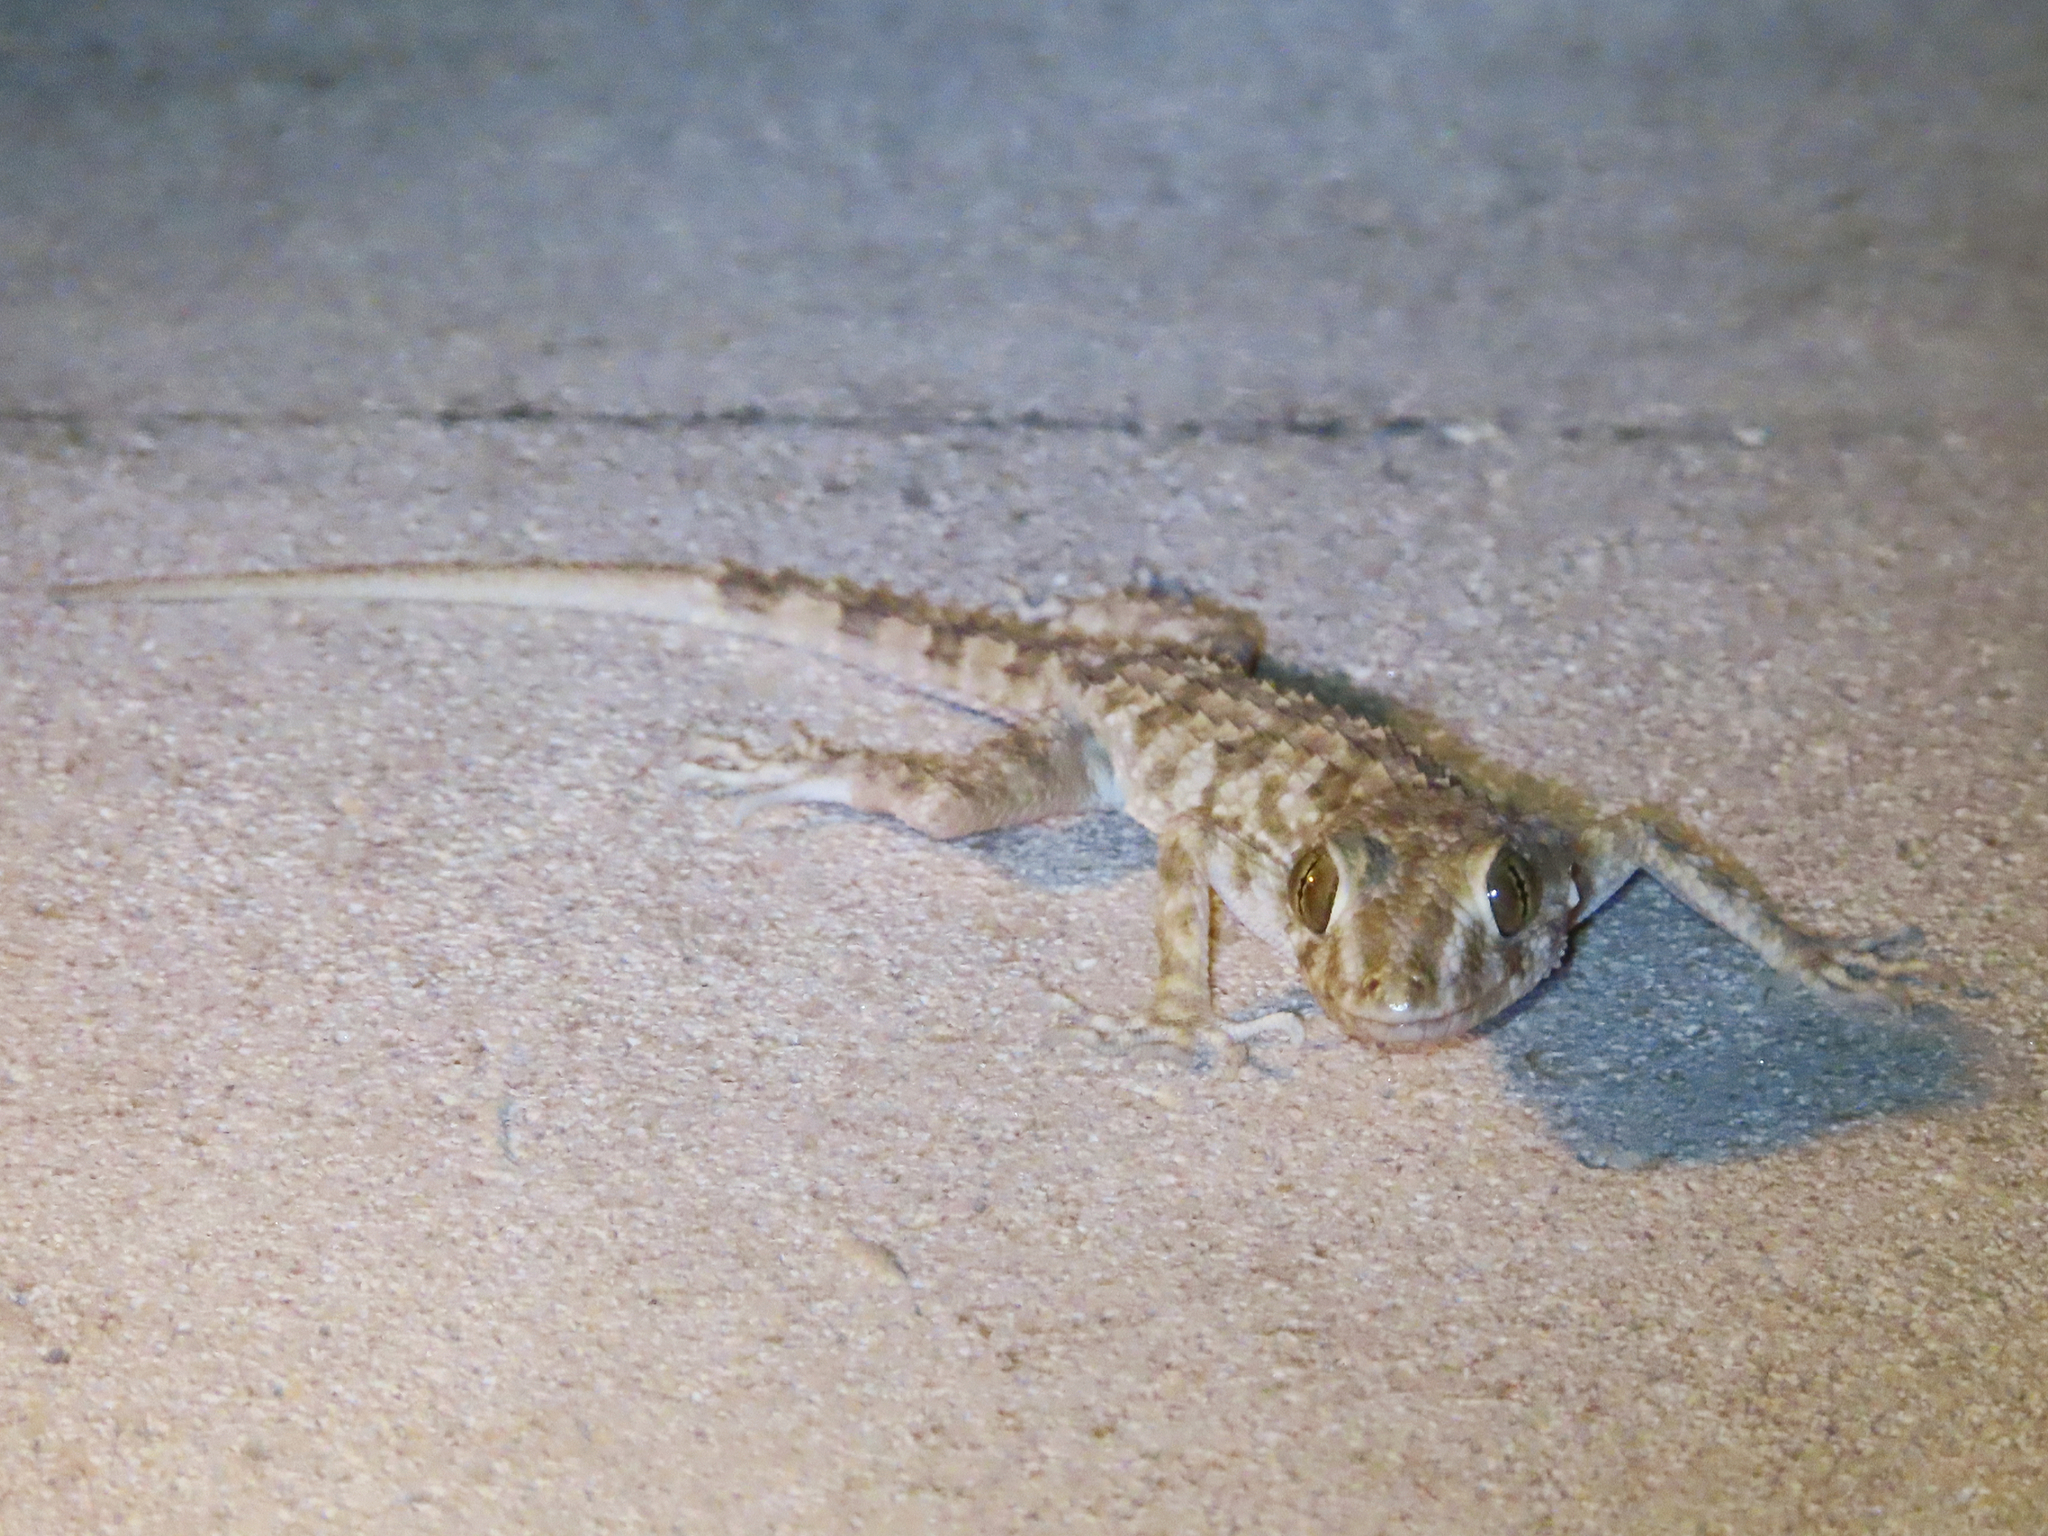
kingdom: Animalia
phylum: Chordata
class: Squamata
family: Gekkonidae
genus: Tenuidactylus
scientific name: Tenuidactylus caspius
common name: Caspian bent-toed gecko
